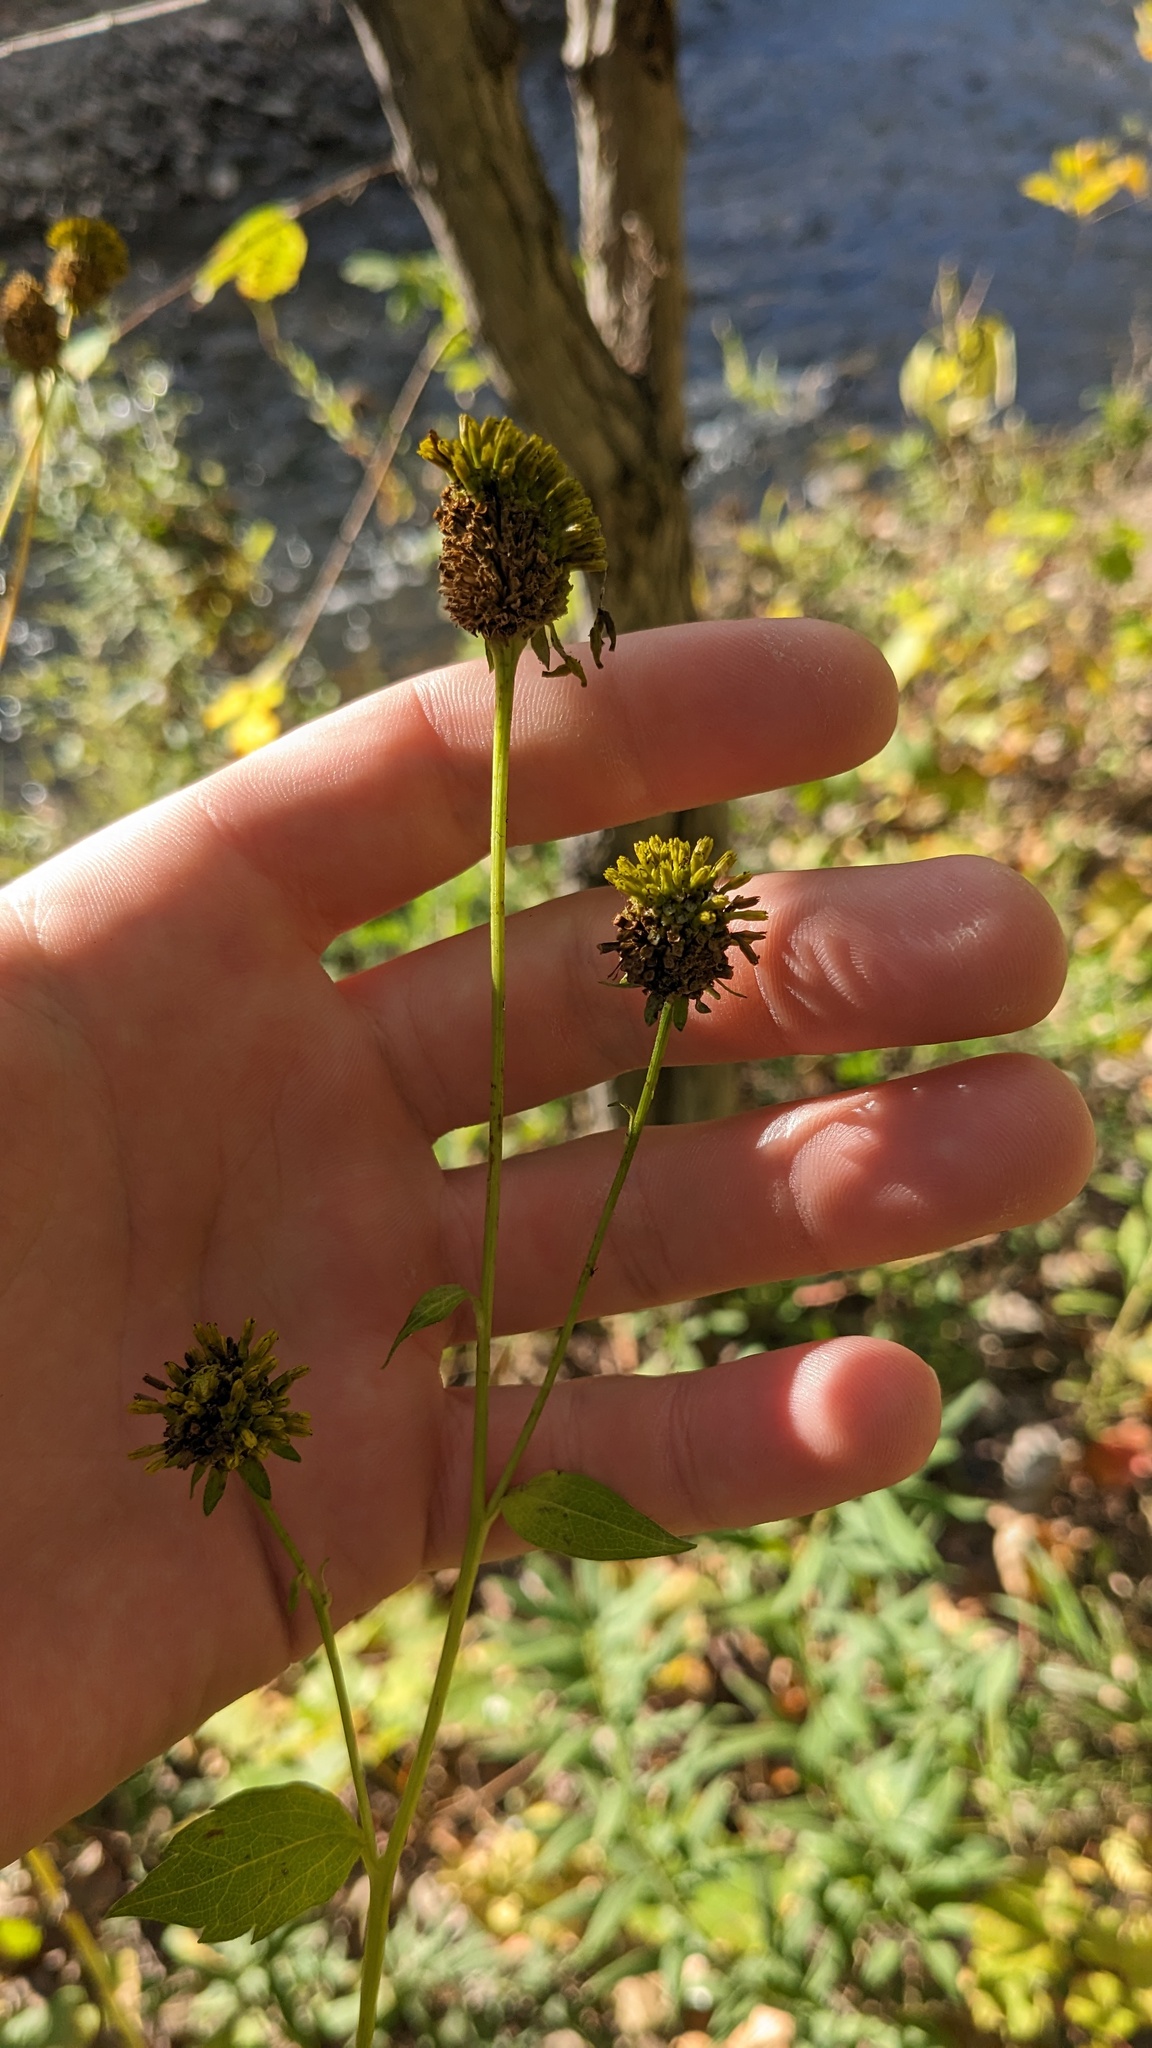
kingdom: Plantae
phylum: Tracheophyta
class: Magnoliopsida
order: Asterales
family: Asteraceae
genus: Rudbeckia
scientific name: Rudbeckia laciniata
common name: Coneflower
